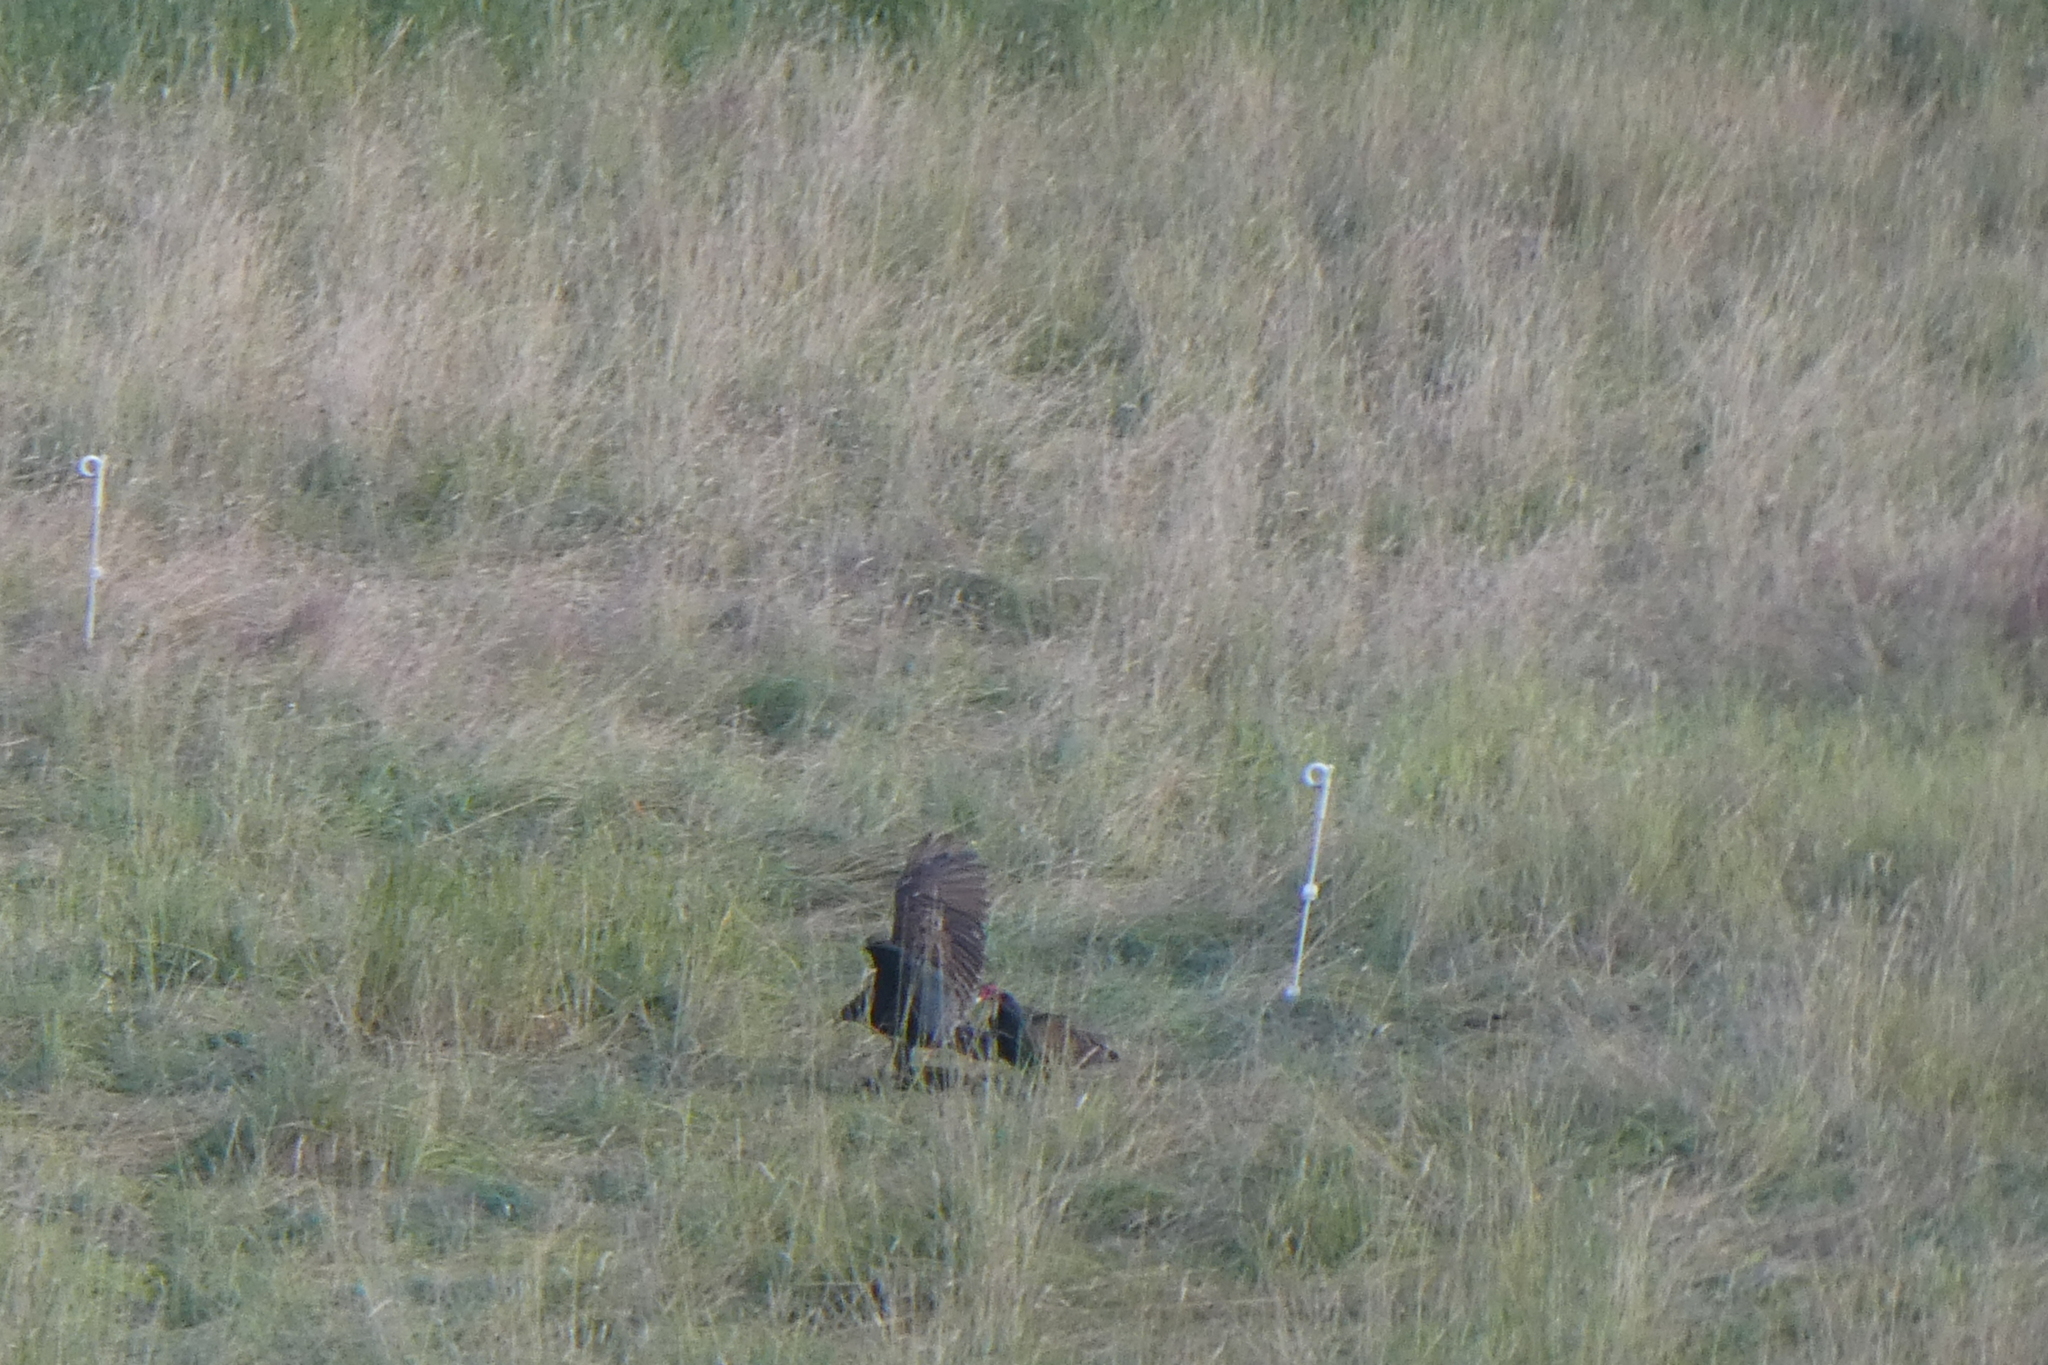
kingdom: Animalia
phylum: Chordata
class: Aves
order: Accipitriformes
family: Cathartidae
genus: Cathartes
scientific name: Cathartes aura
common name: Turkey vulture
